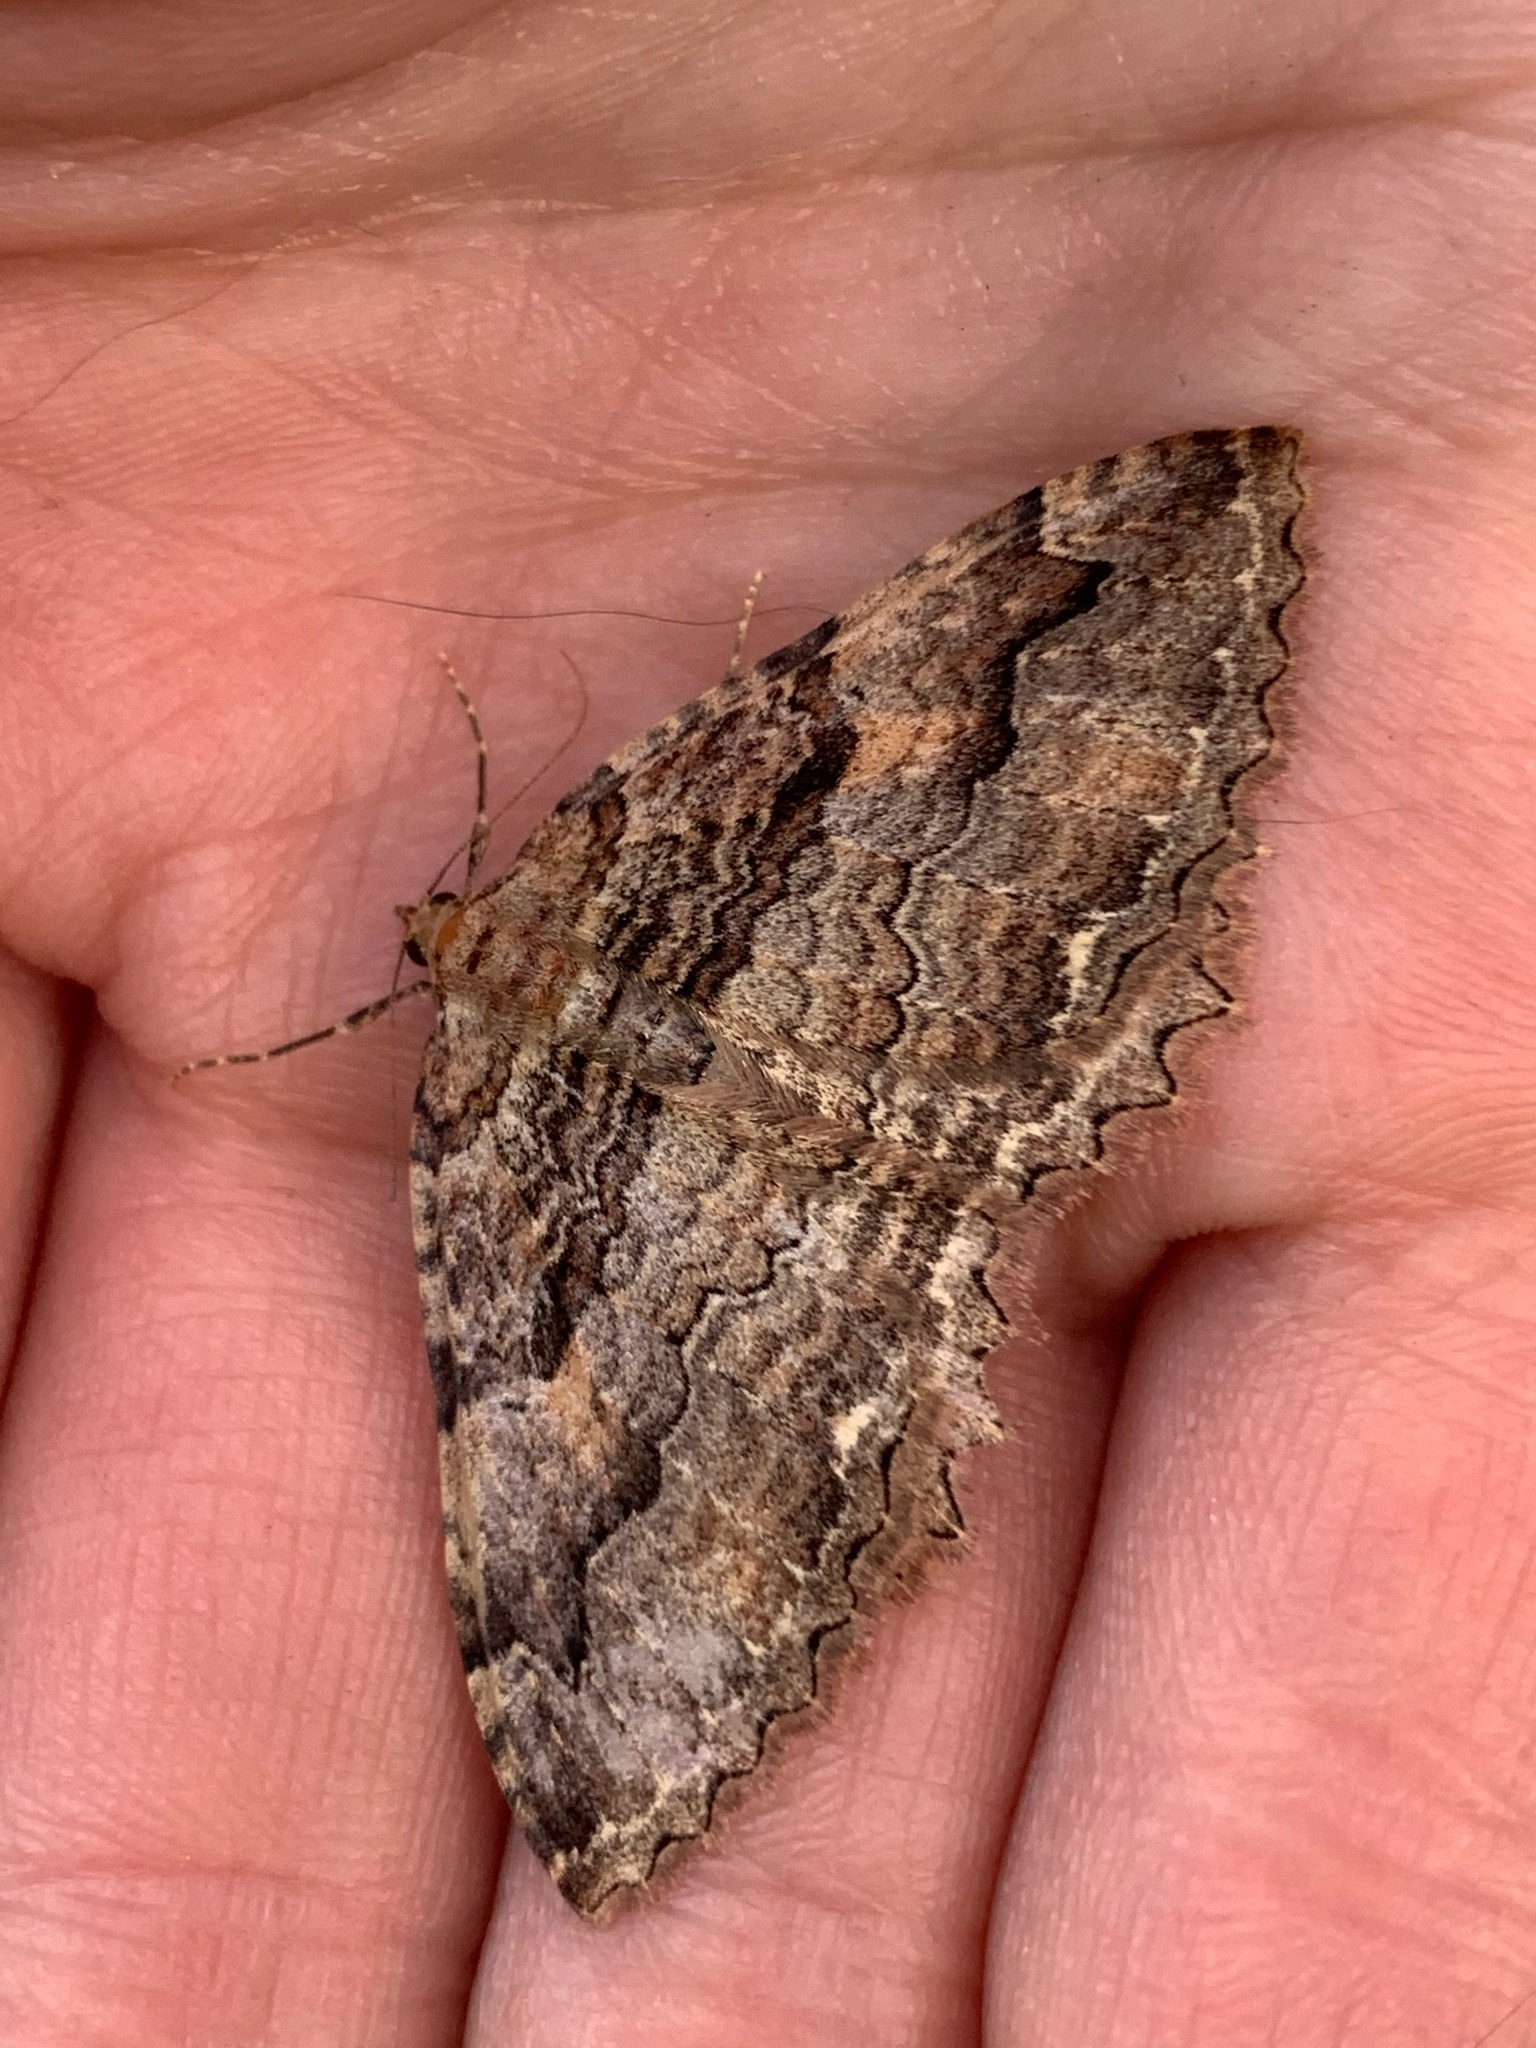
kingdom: Animalia
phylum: Arthropoda
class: Insecta
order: Lepidoptera
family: Geometridae
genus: Triphosa
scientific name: Triphosa haesitata
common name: Tissue moth
